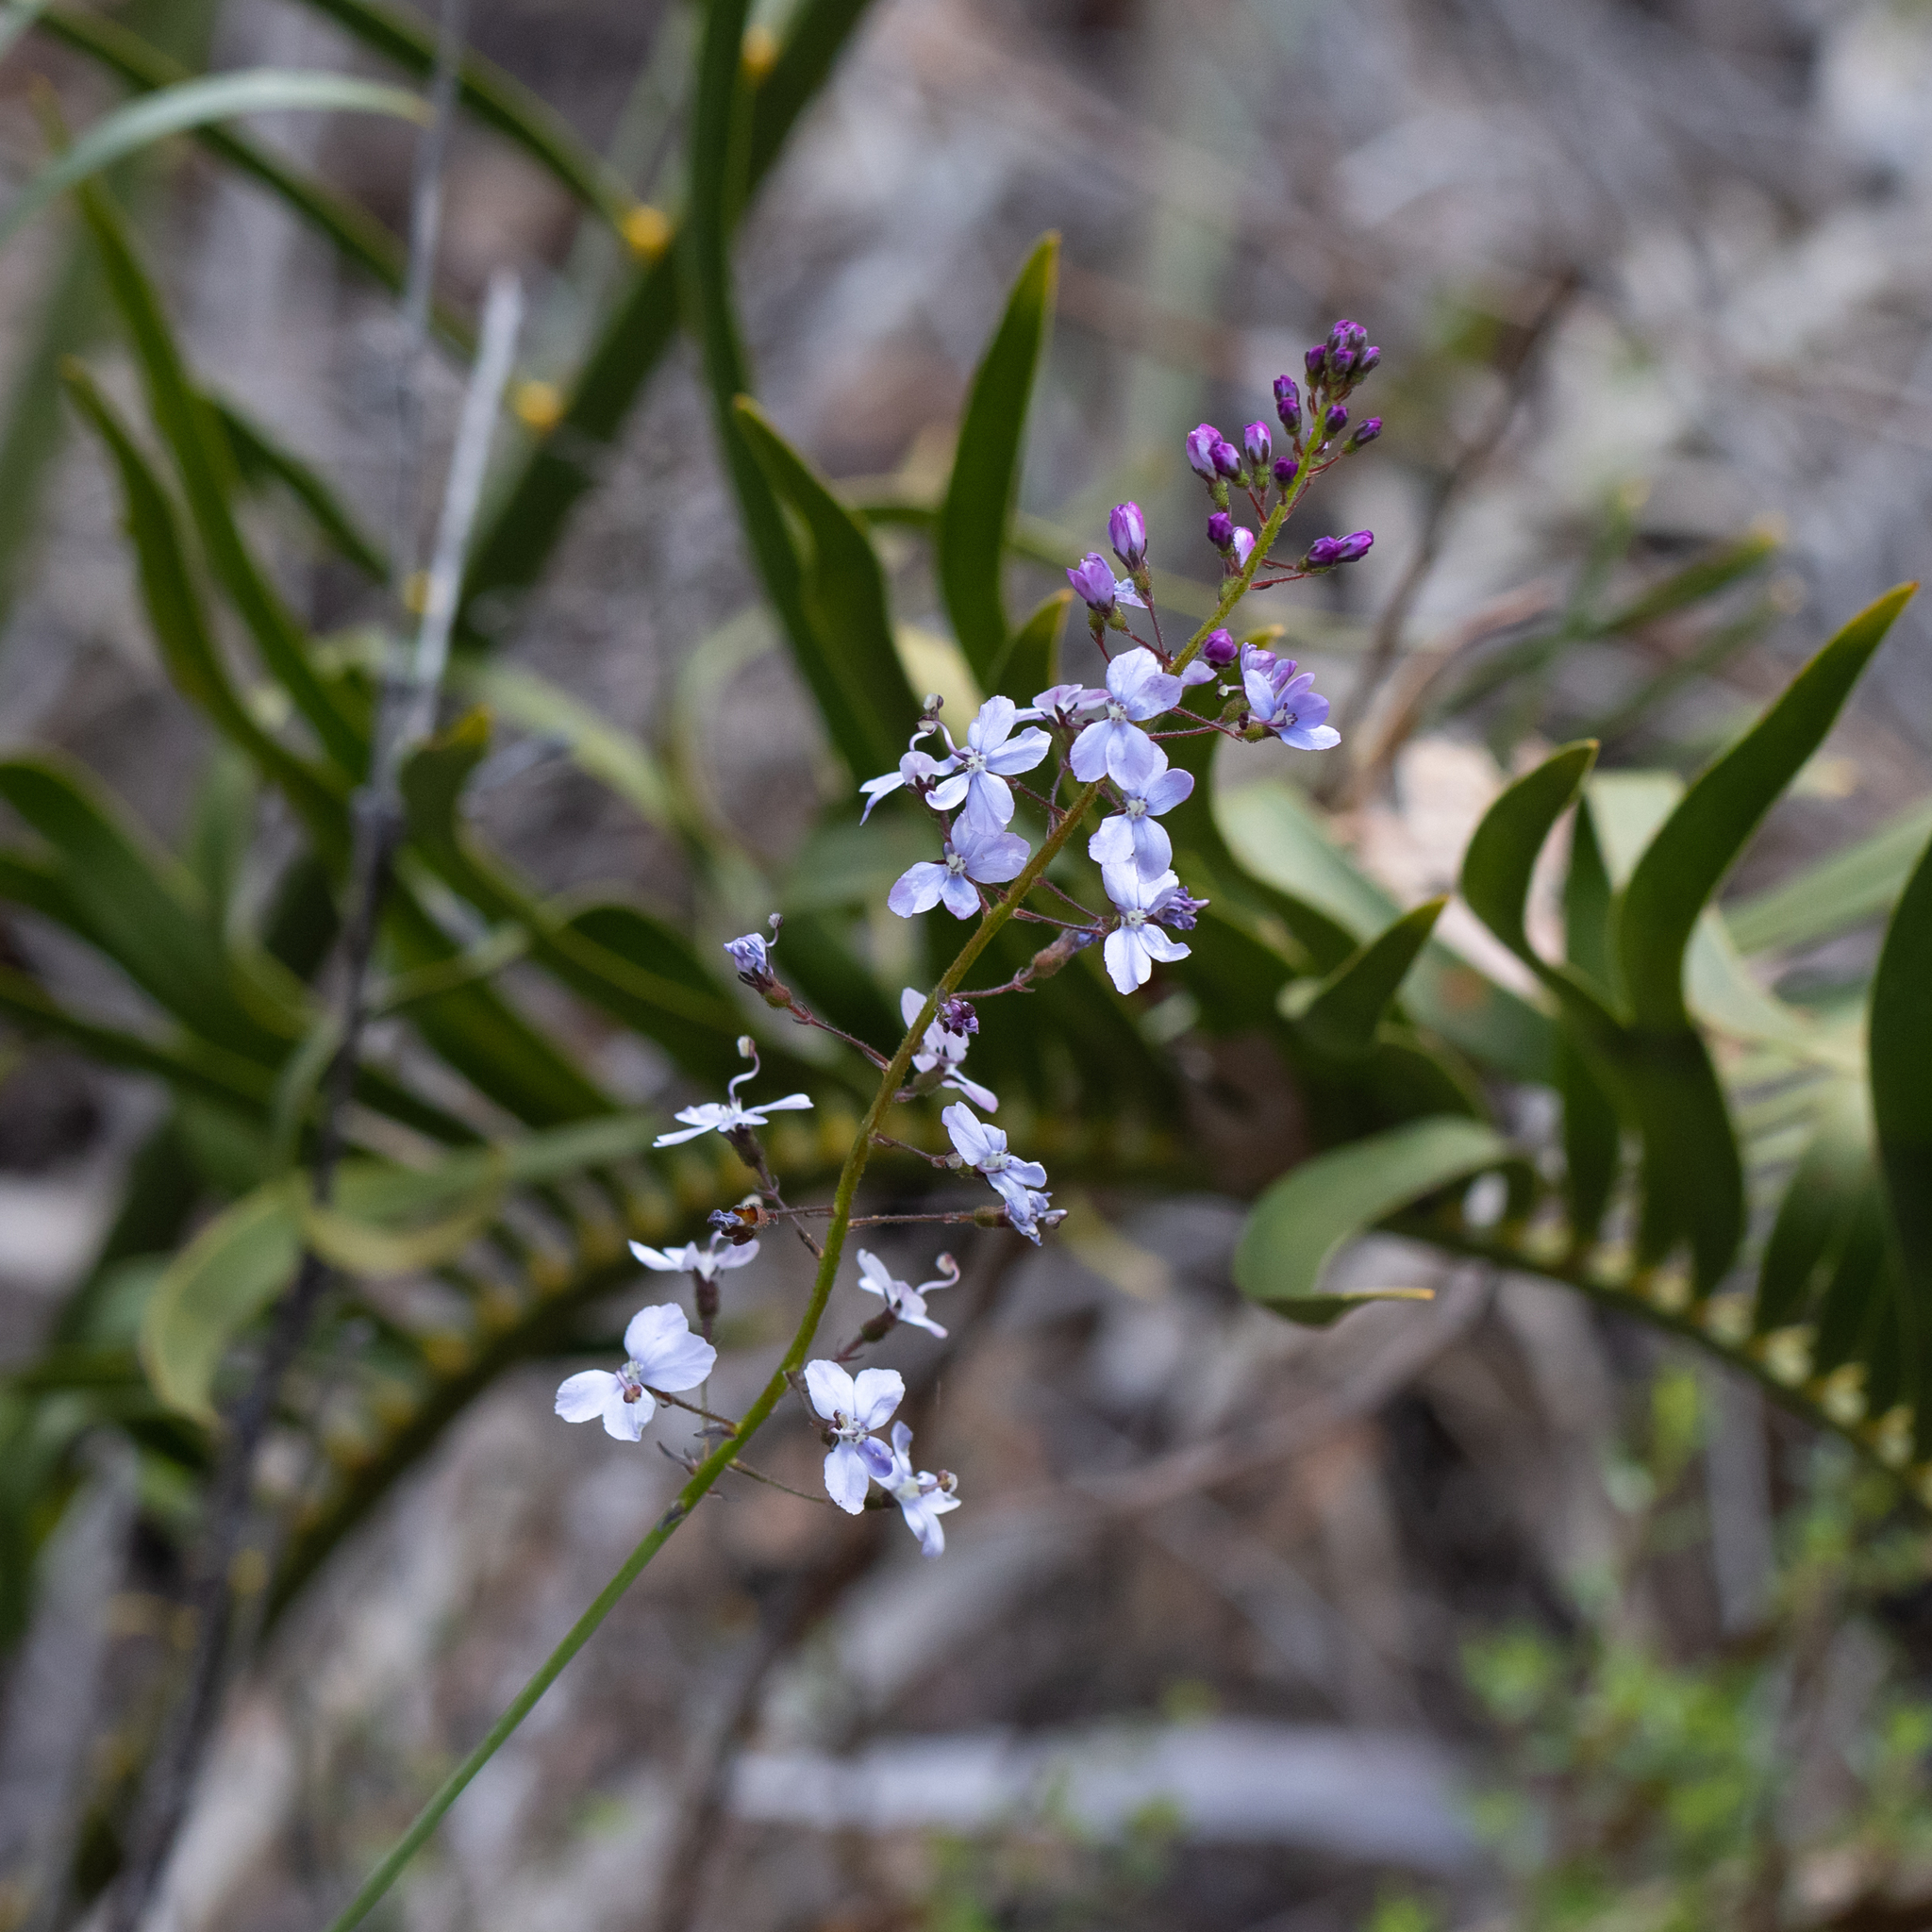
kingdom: Plantae
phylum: Tracheophyta
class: Magnoliopsida
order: Asterales
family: Stylidiaceae
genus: Stylidium
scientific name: Stylidium amoenum
